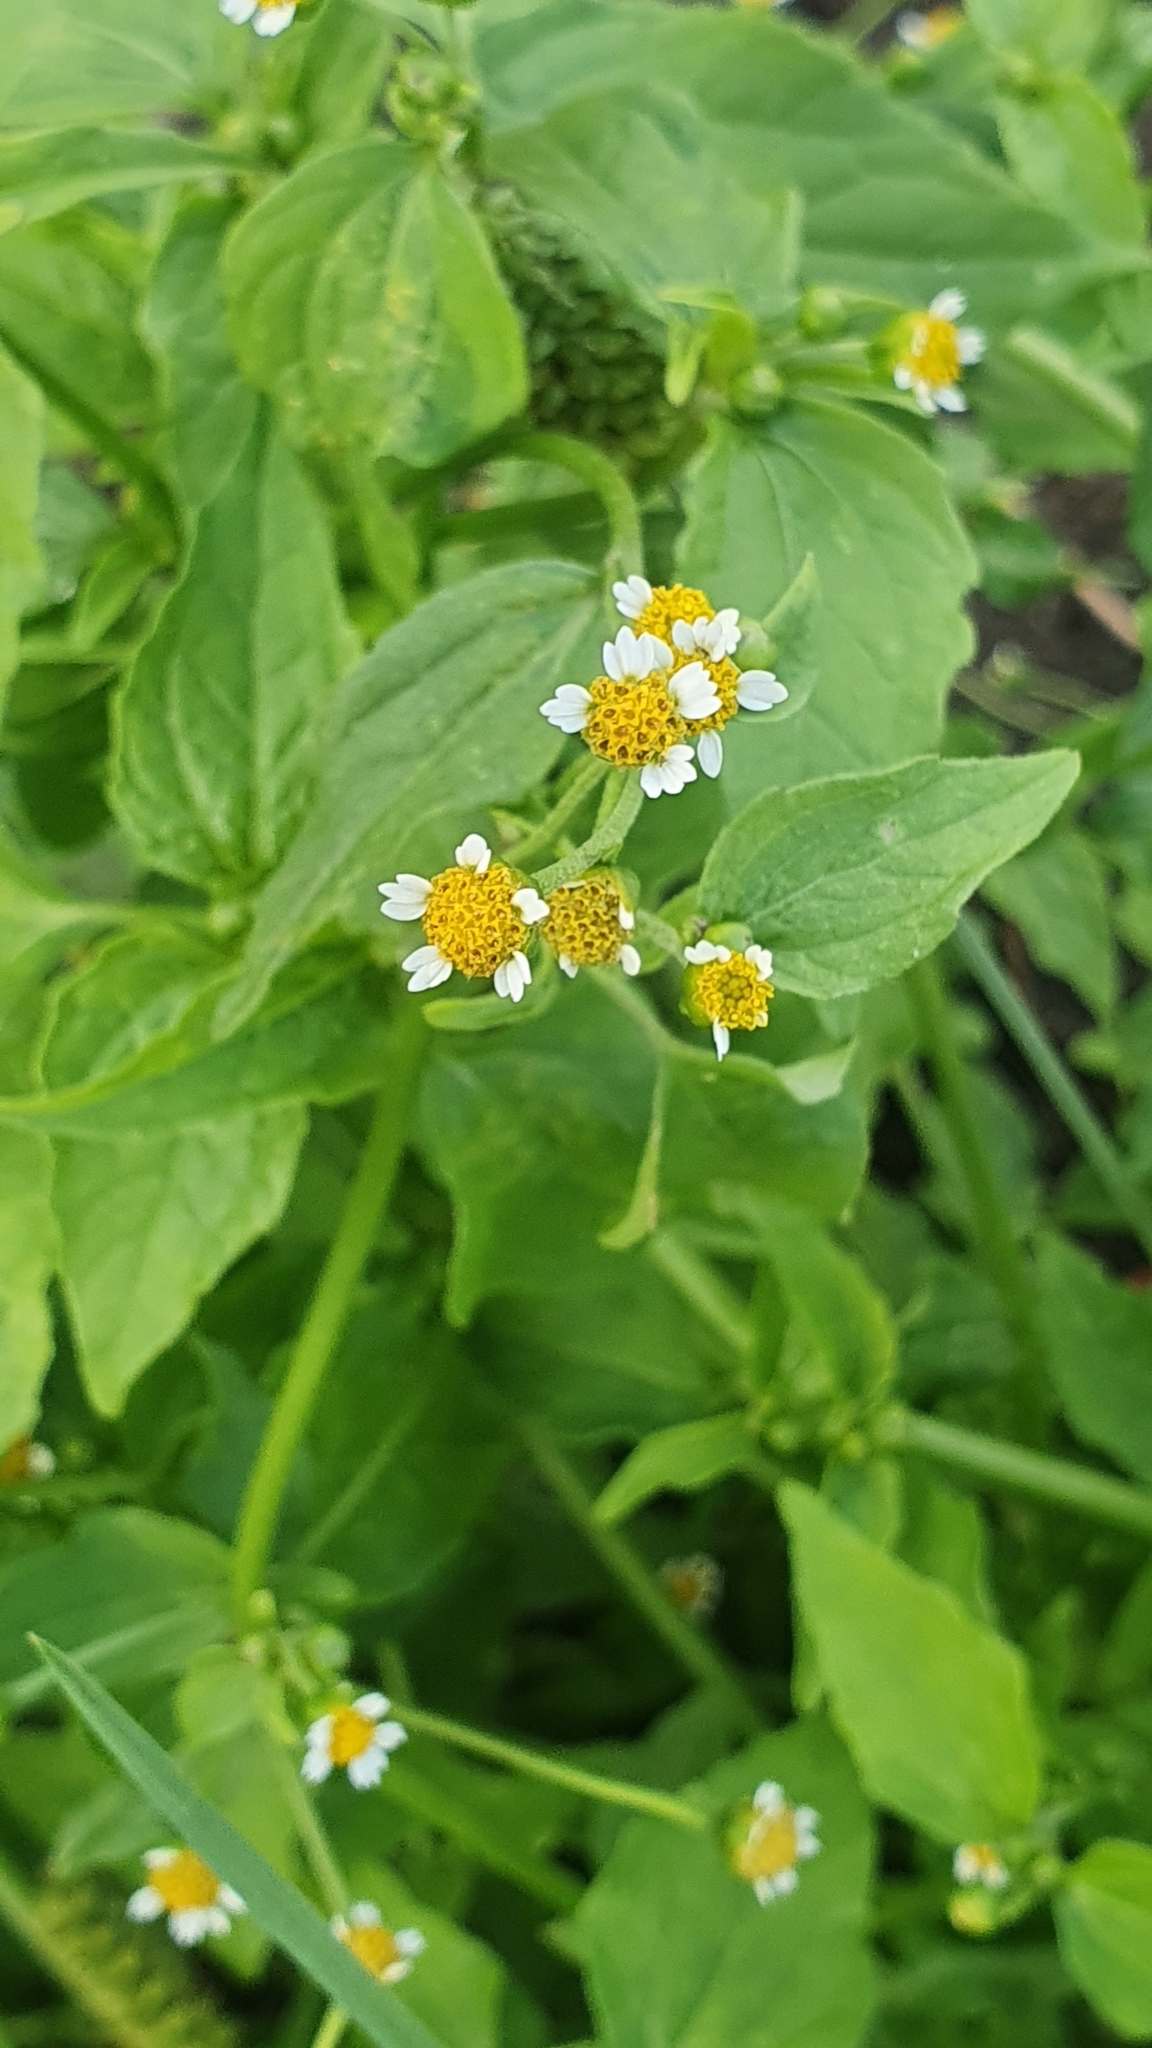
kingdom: Plantae
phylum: Tracheophyta
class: Magnoliopsida
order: Asterales
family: Asteraceae
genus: Galinsoga
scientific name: Galinsoga parviflora
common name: Gallant soldier
